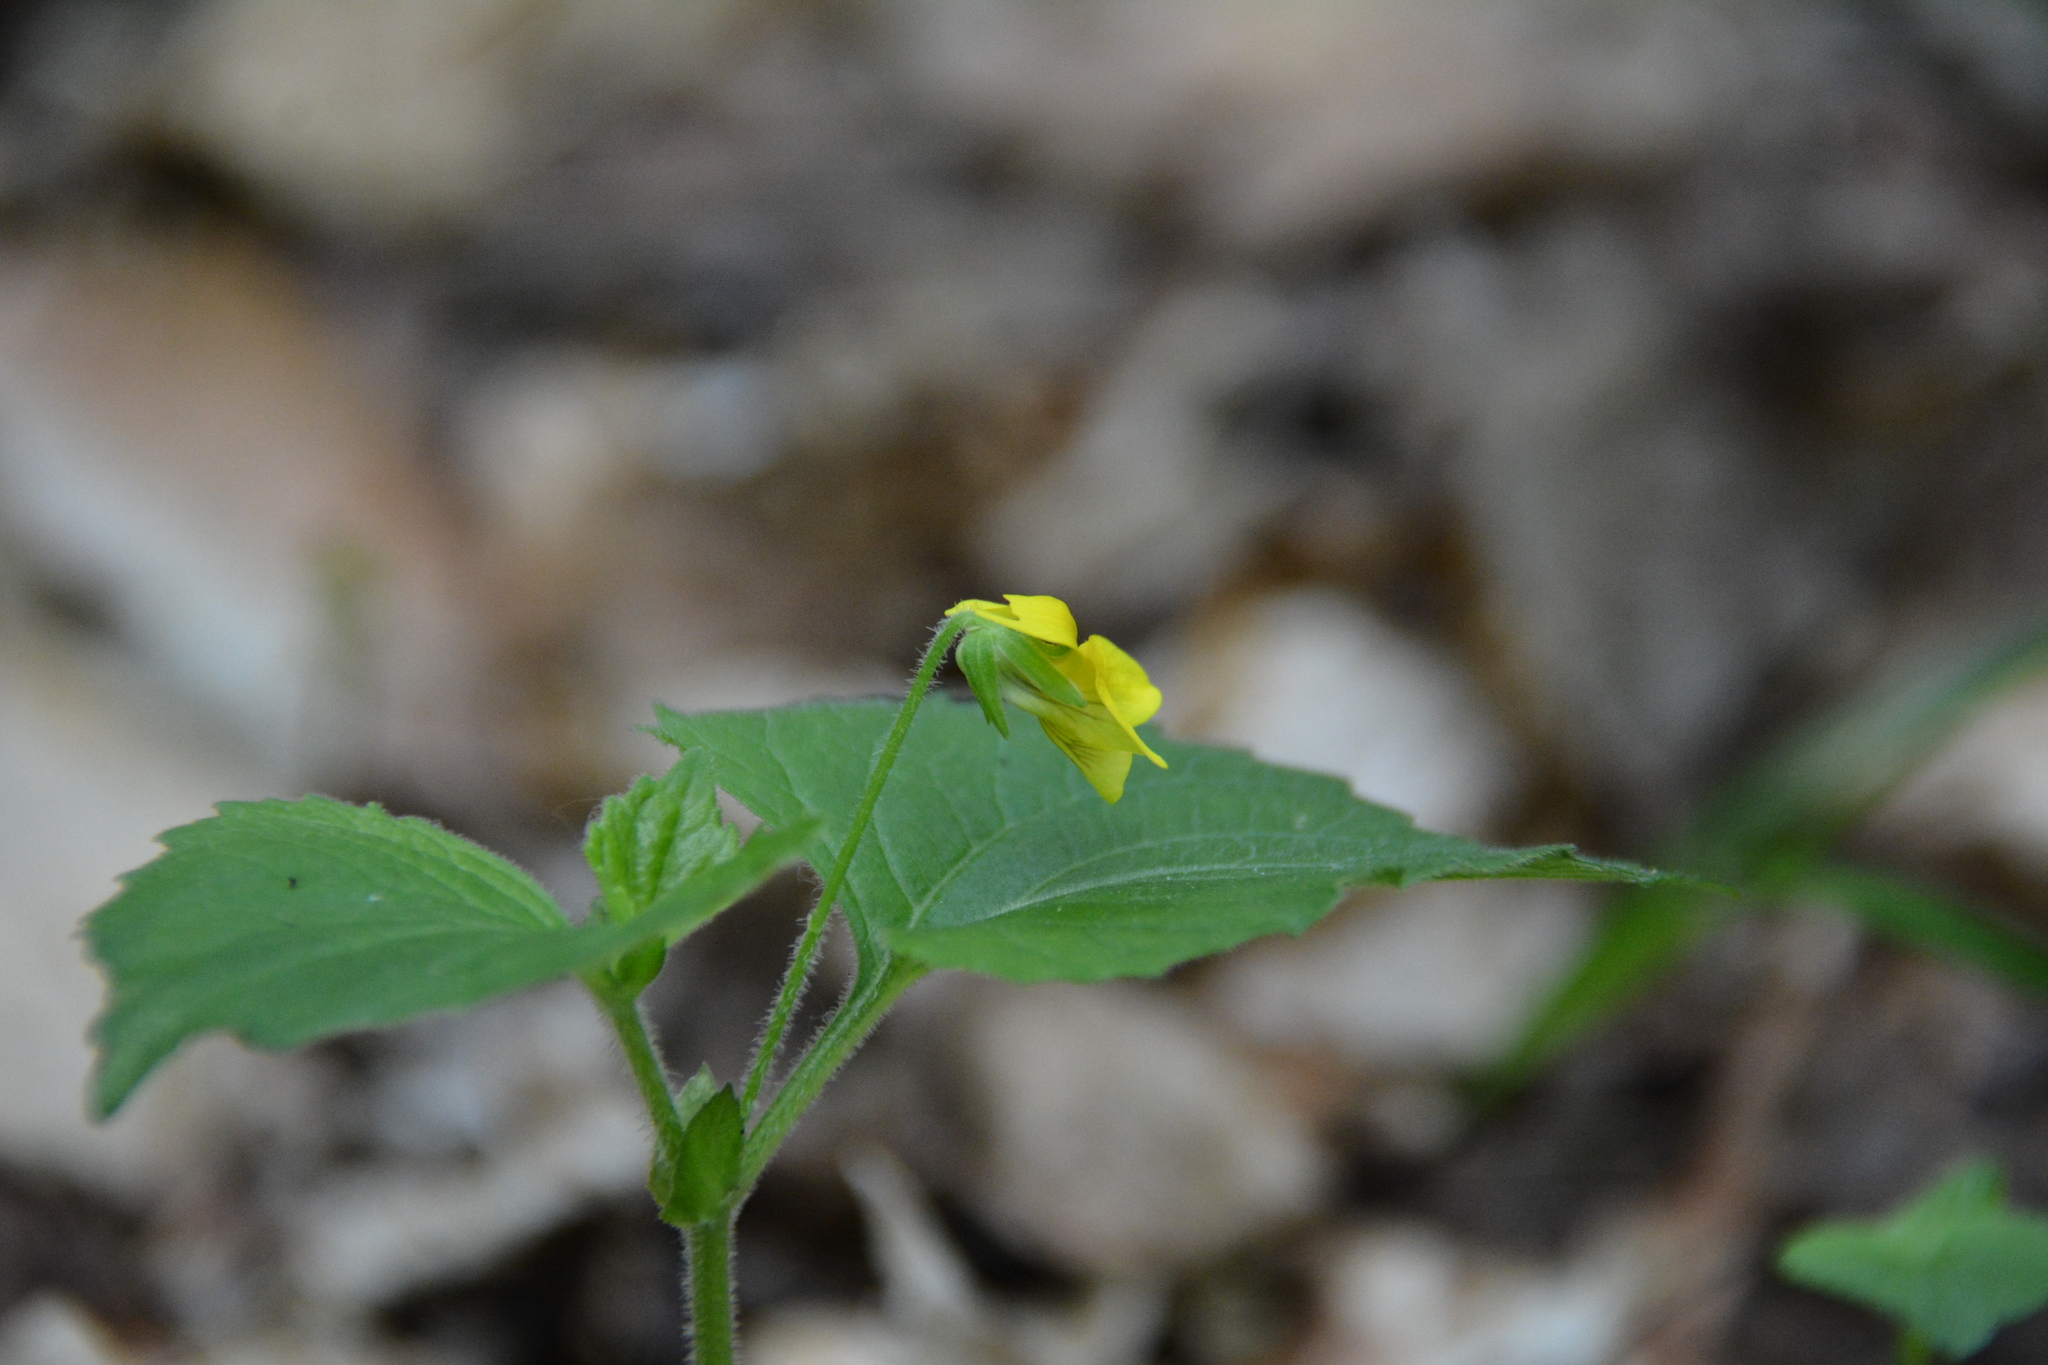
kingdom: Plantae
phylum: Tracheophyta
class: Magnoliopsida
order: Malpighiales
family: Violaceae
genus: Viola
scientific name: Viola pubescens
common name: Yellow forest violet
